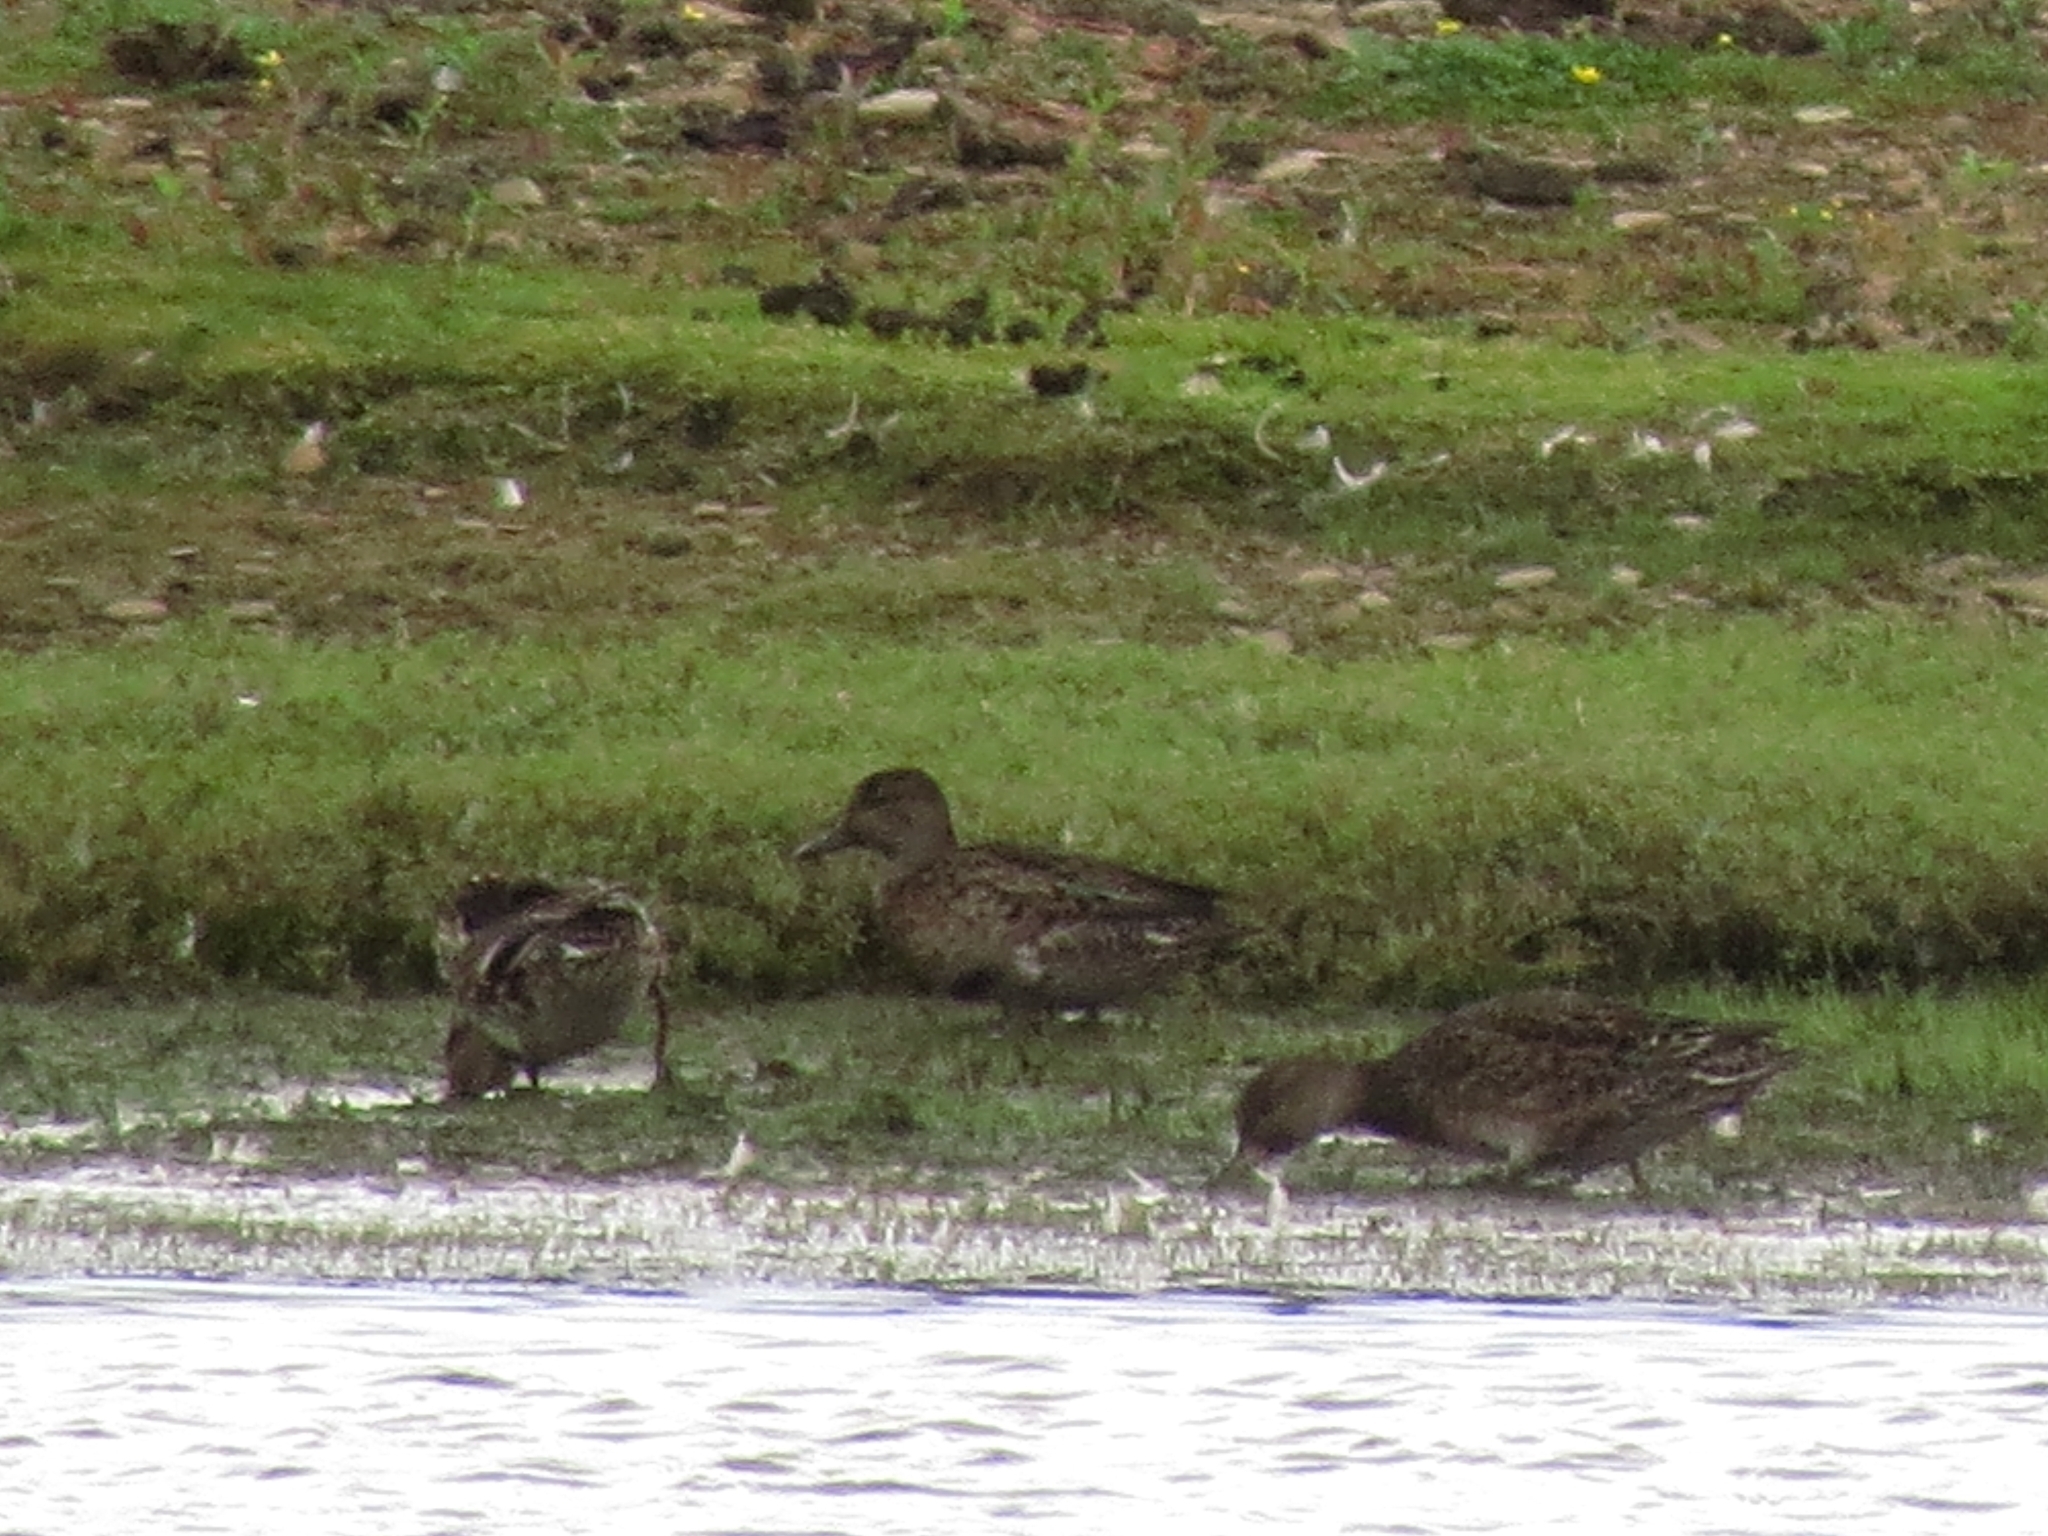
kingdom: Animalia
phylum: Chordata
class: Aves
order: Anseriformes
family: Anatidae
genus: Anas
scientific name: Anas crecca
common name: Eurasian teal
